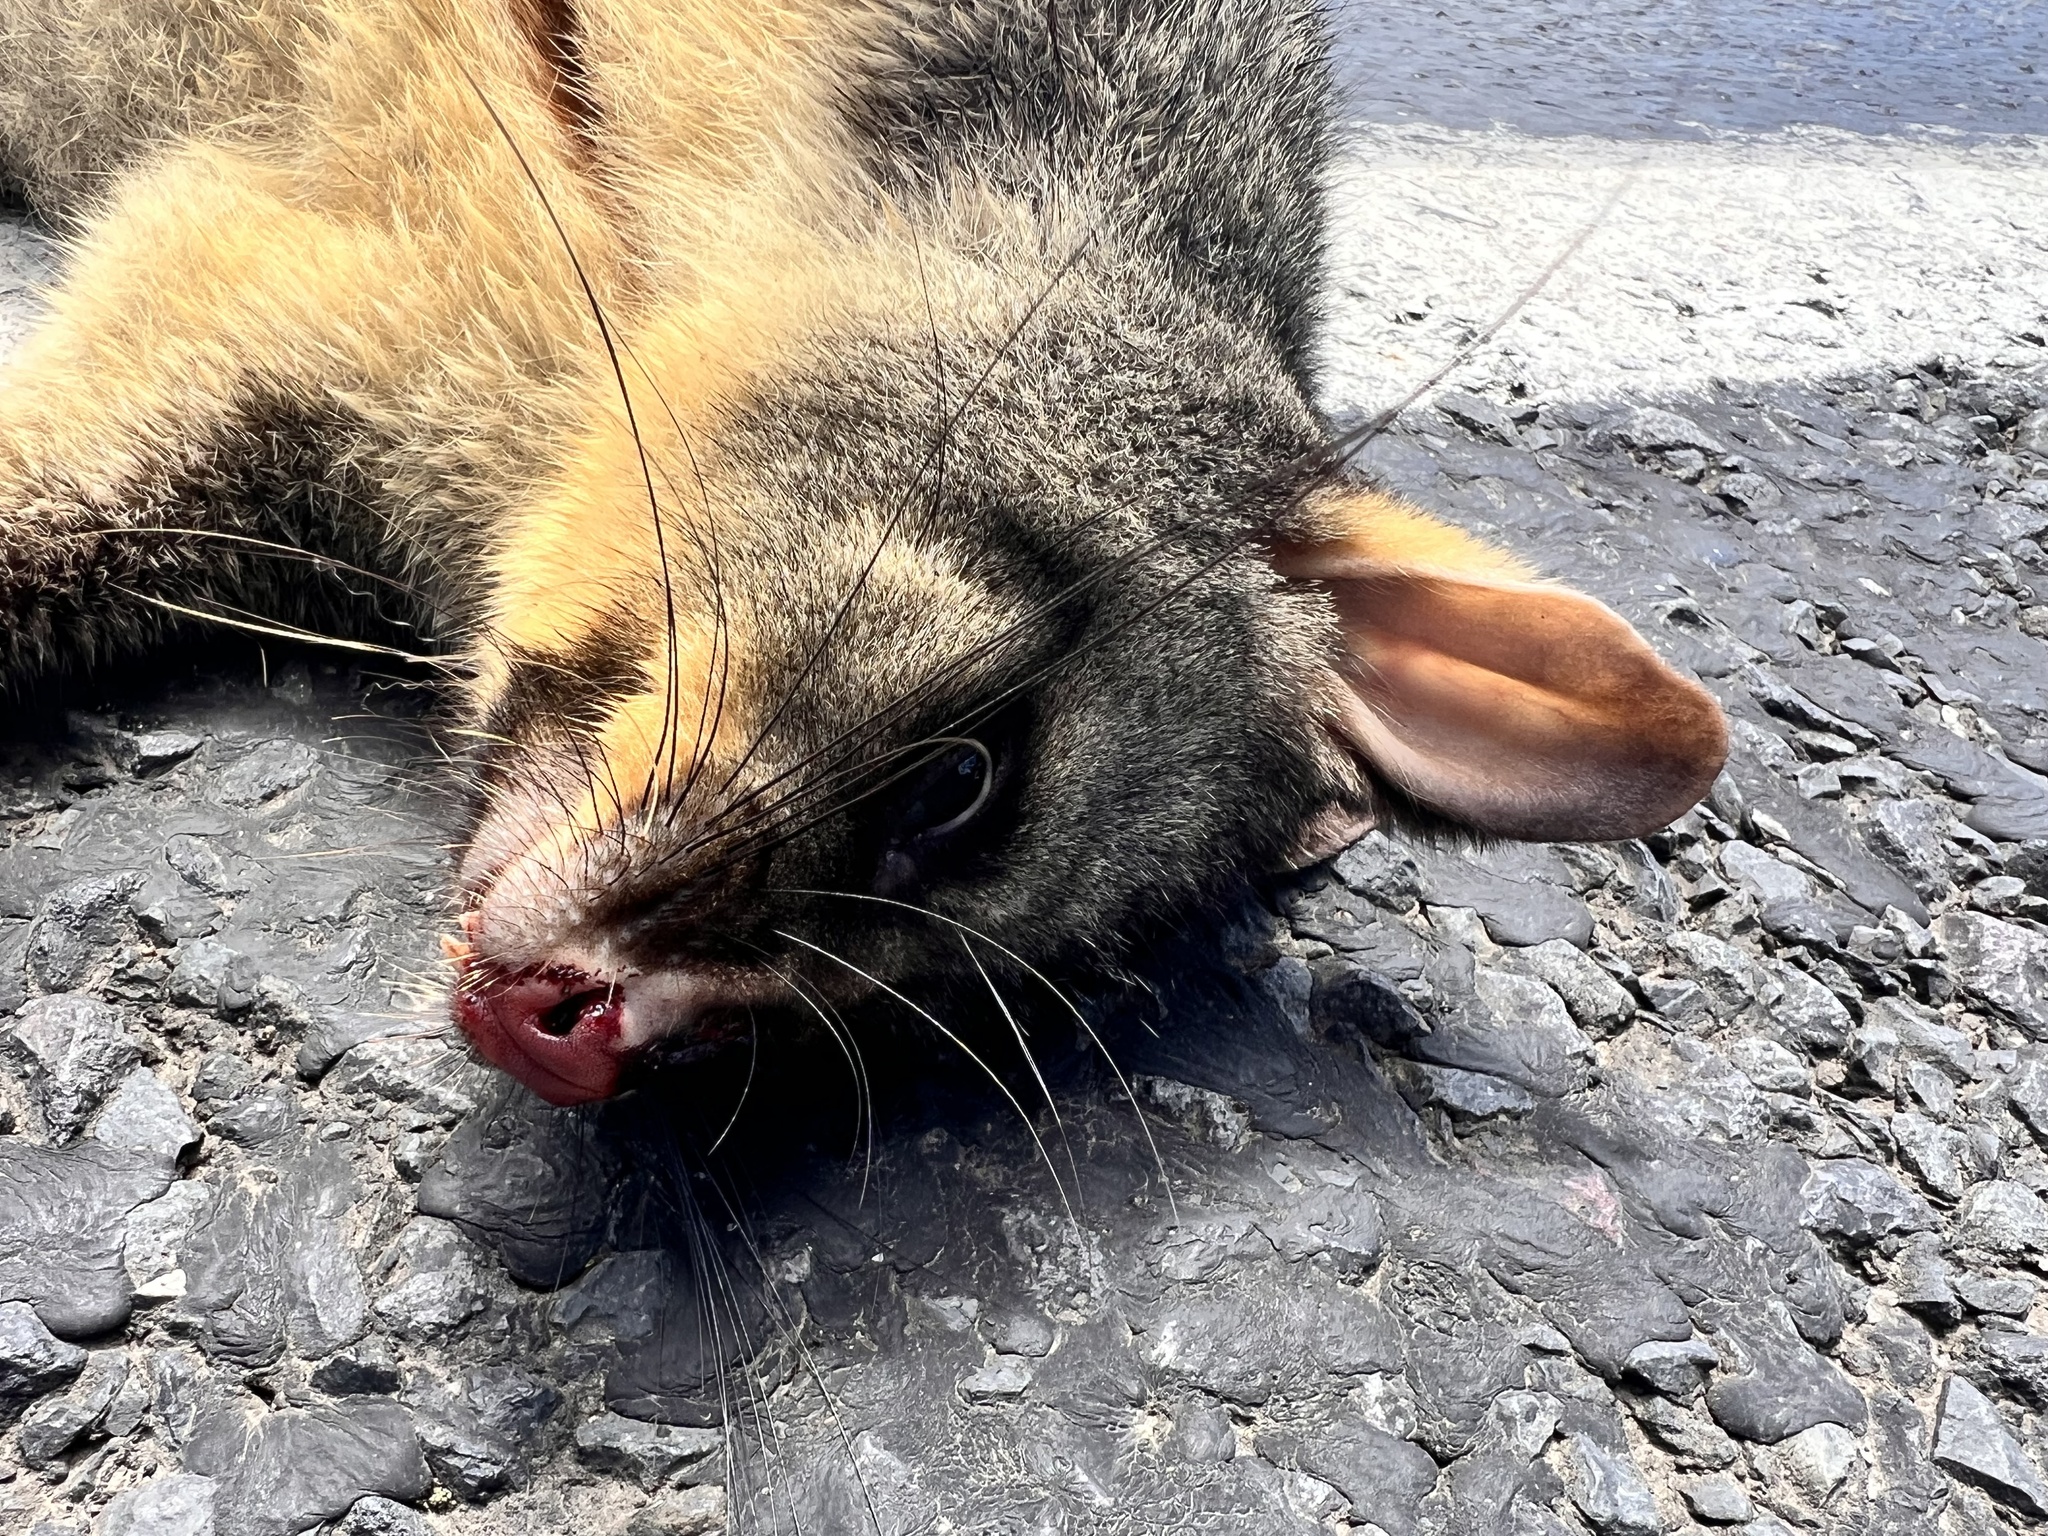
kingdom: Animalia
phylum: Chordata
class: Mammalia
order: Diprotodontia
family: Phalangeridae
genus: Trichosurus
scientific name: Trichosurus vulpecula
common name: Common brushtail
